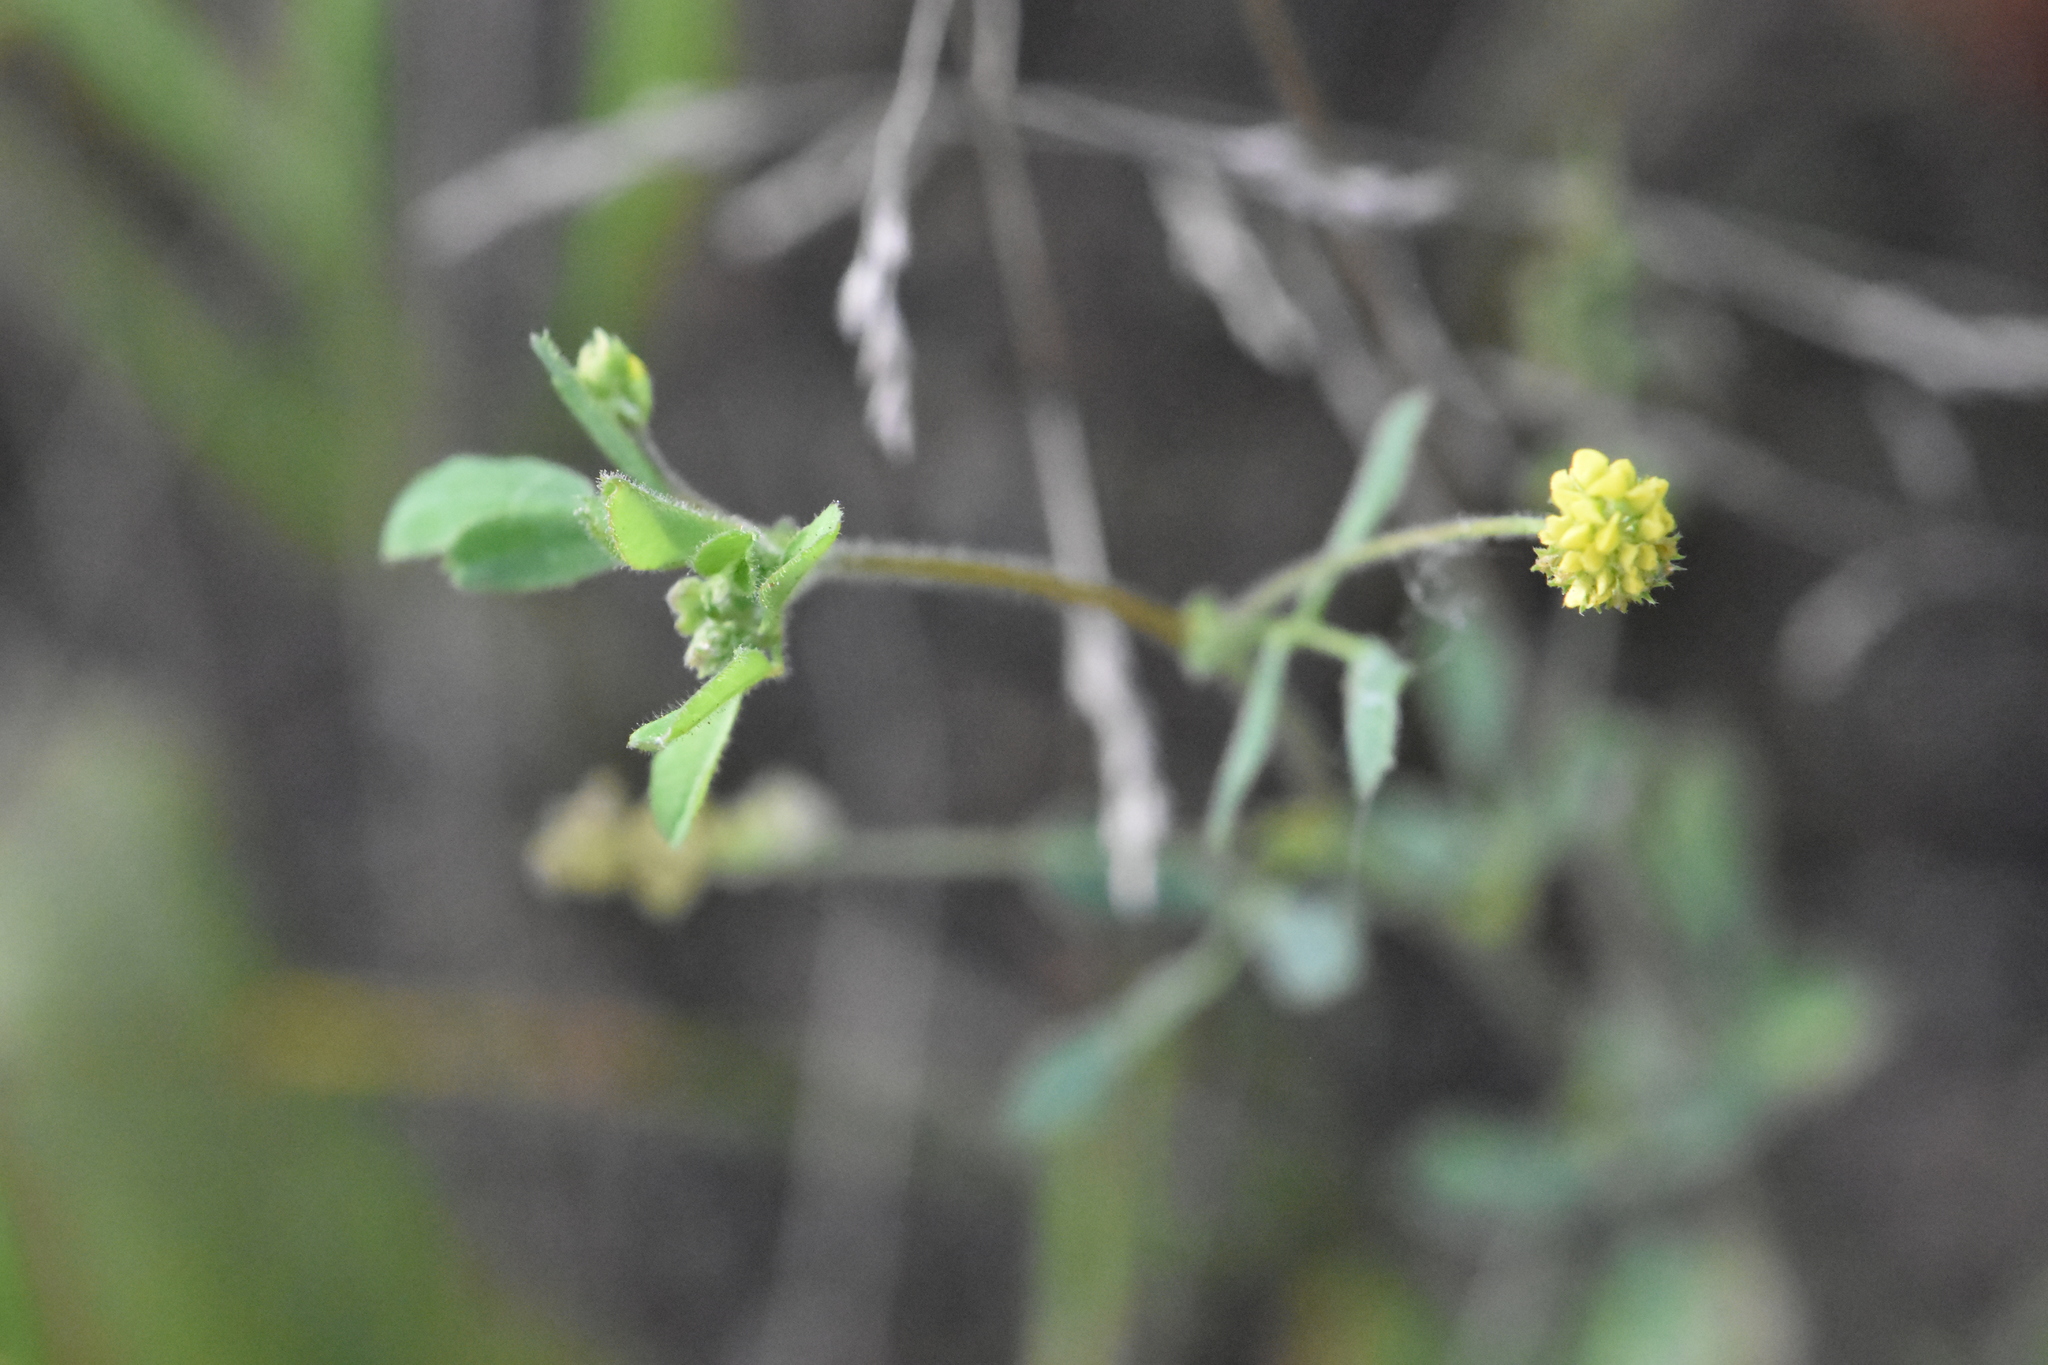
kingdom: Plantae
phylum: Tracheophyta
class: Magnoliopsida
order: Fabales
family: Fabaceae
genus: Medicago
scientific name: Medicago lupulina
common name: Black medick
